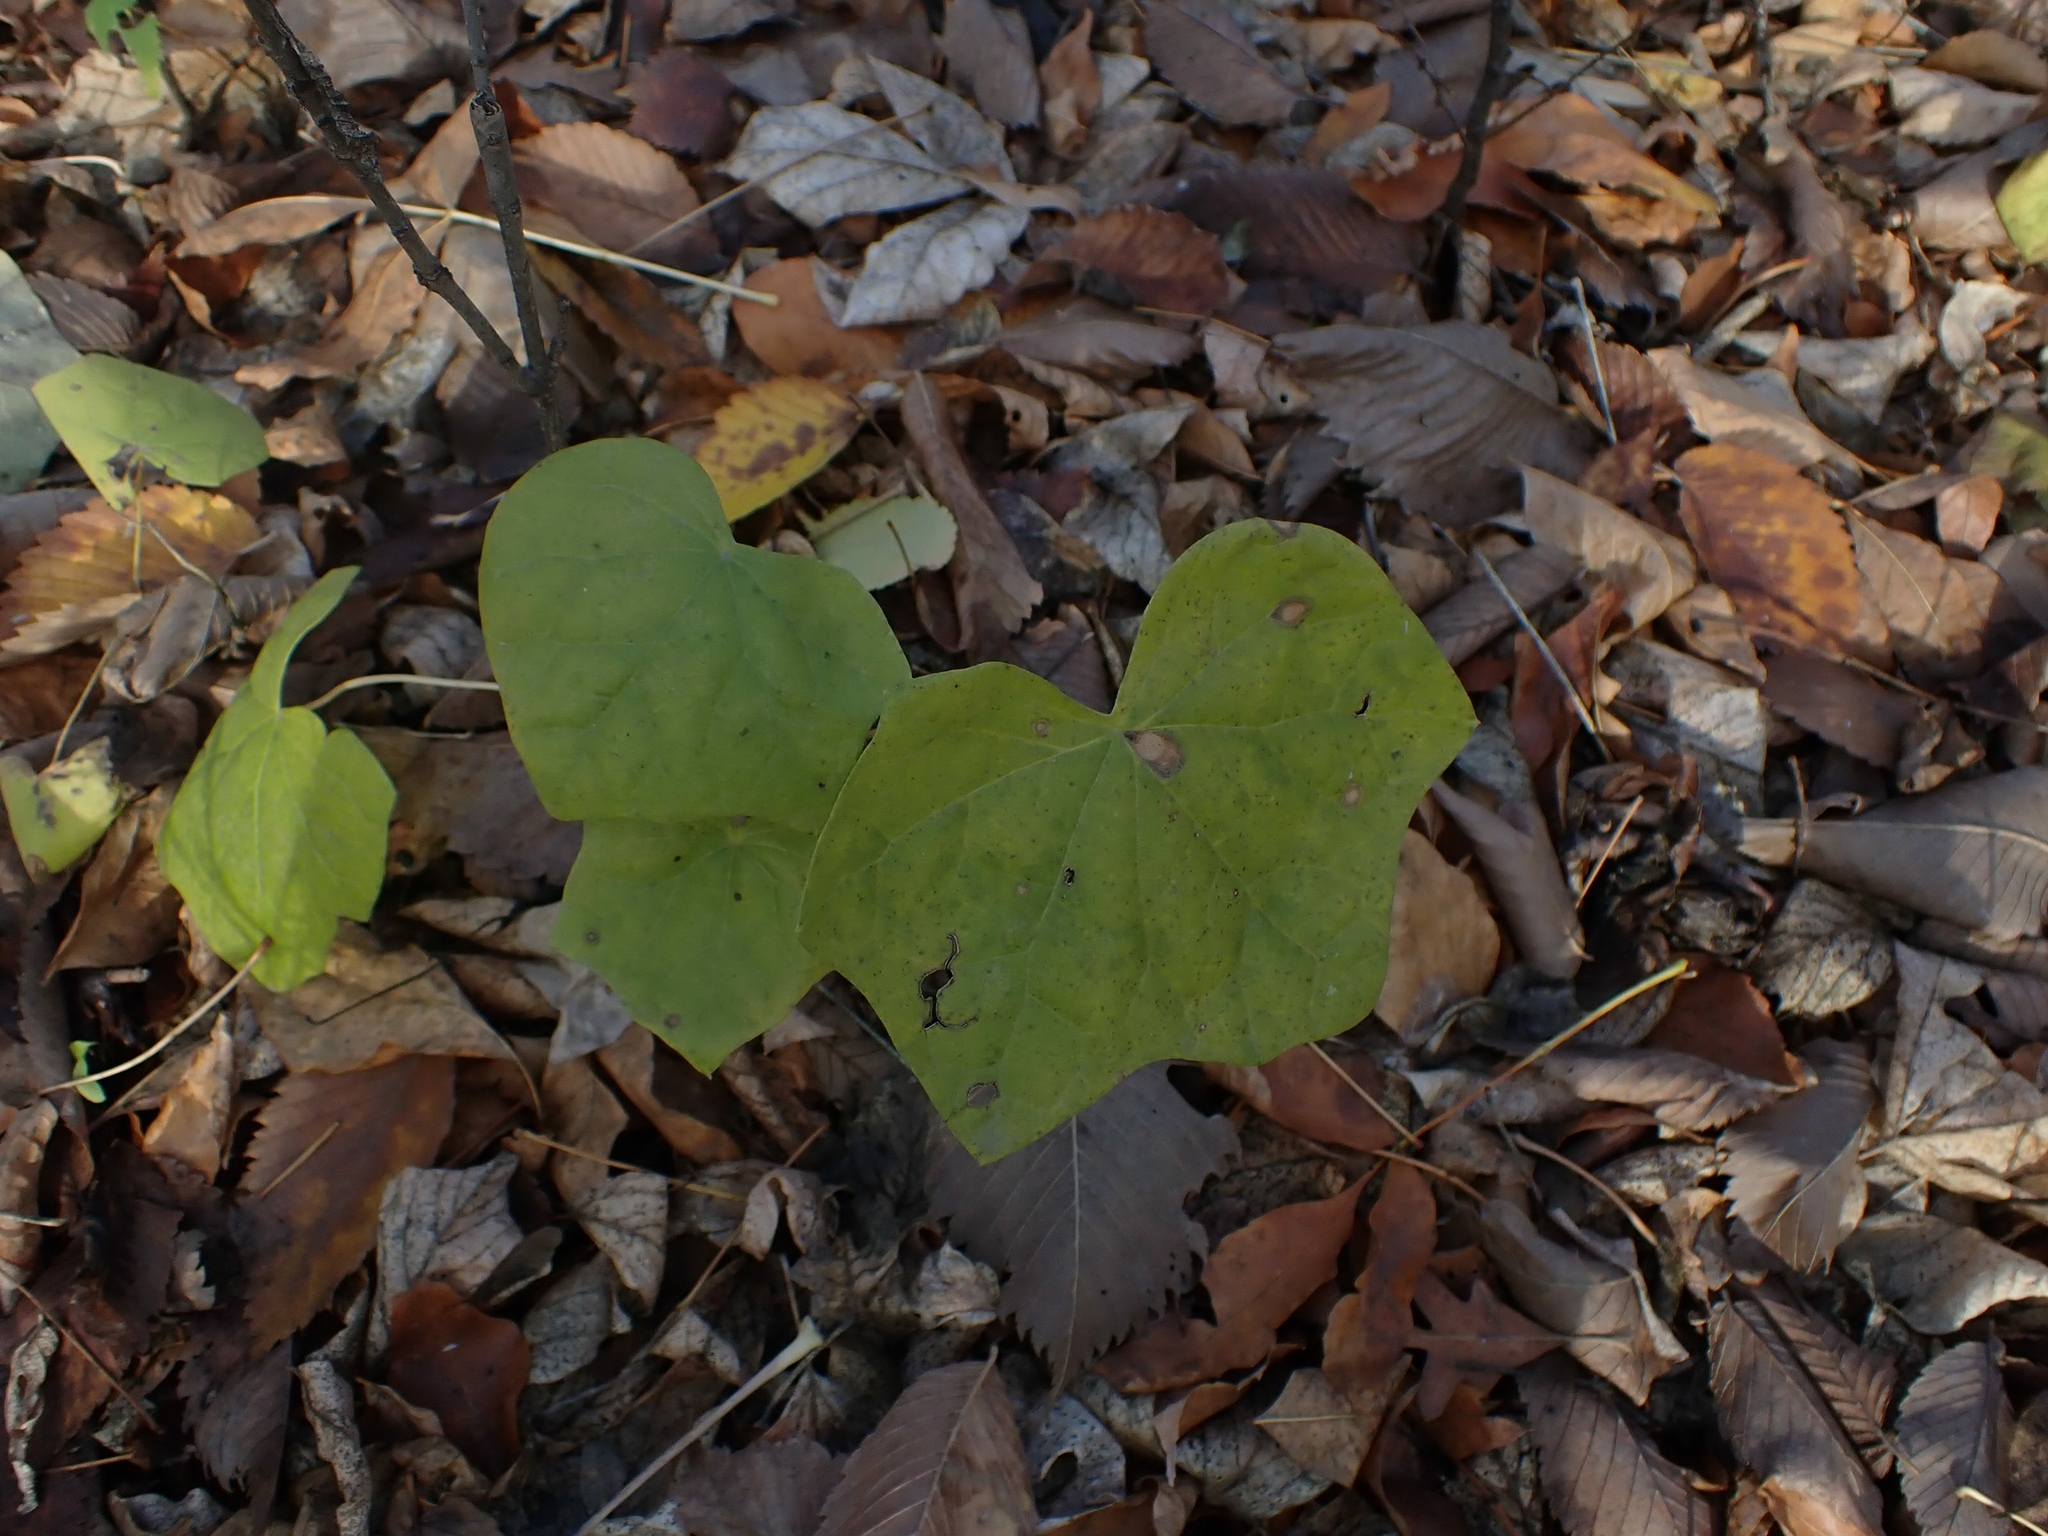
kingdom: Plantae
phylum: Tracheophyta
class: Magnoliopsida
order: Ranunculales
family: Menispermaceae
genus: Menispermum
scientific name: Menispermum canadense
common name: Moonseed
